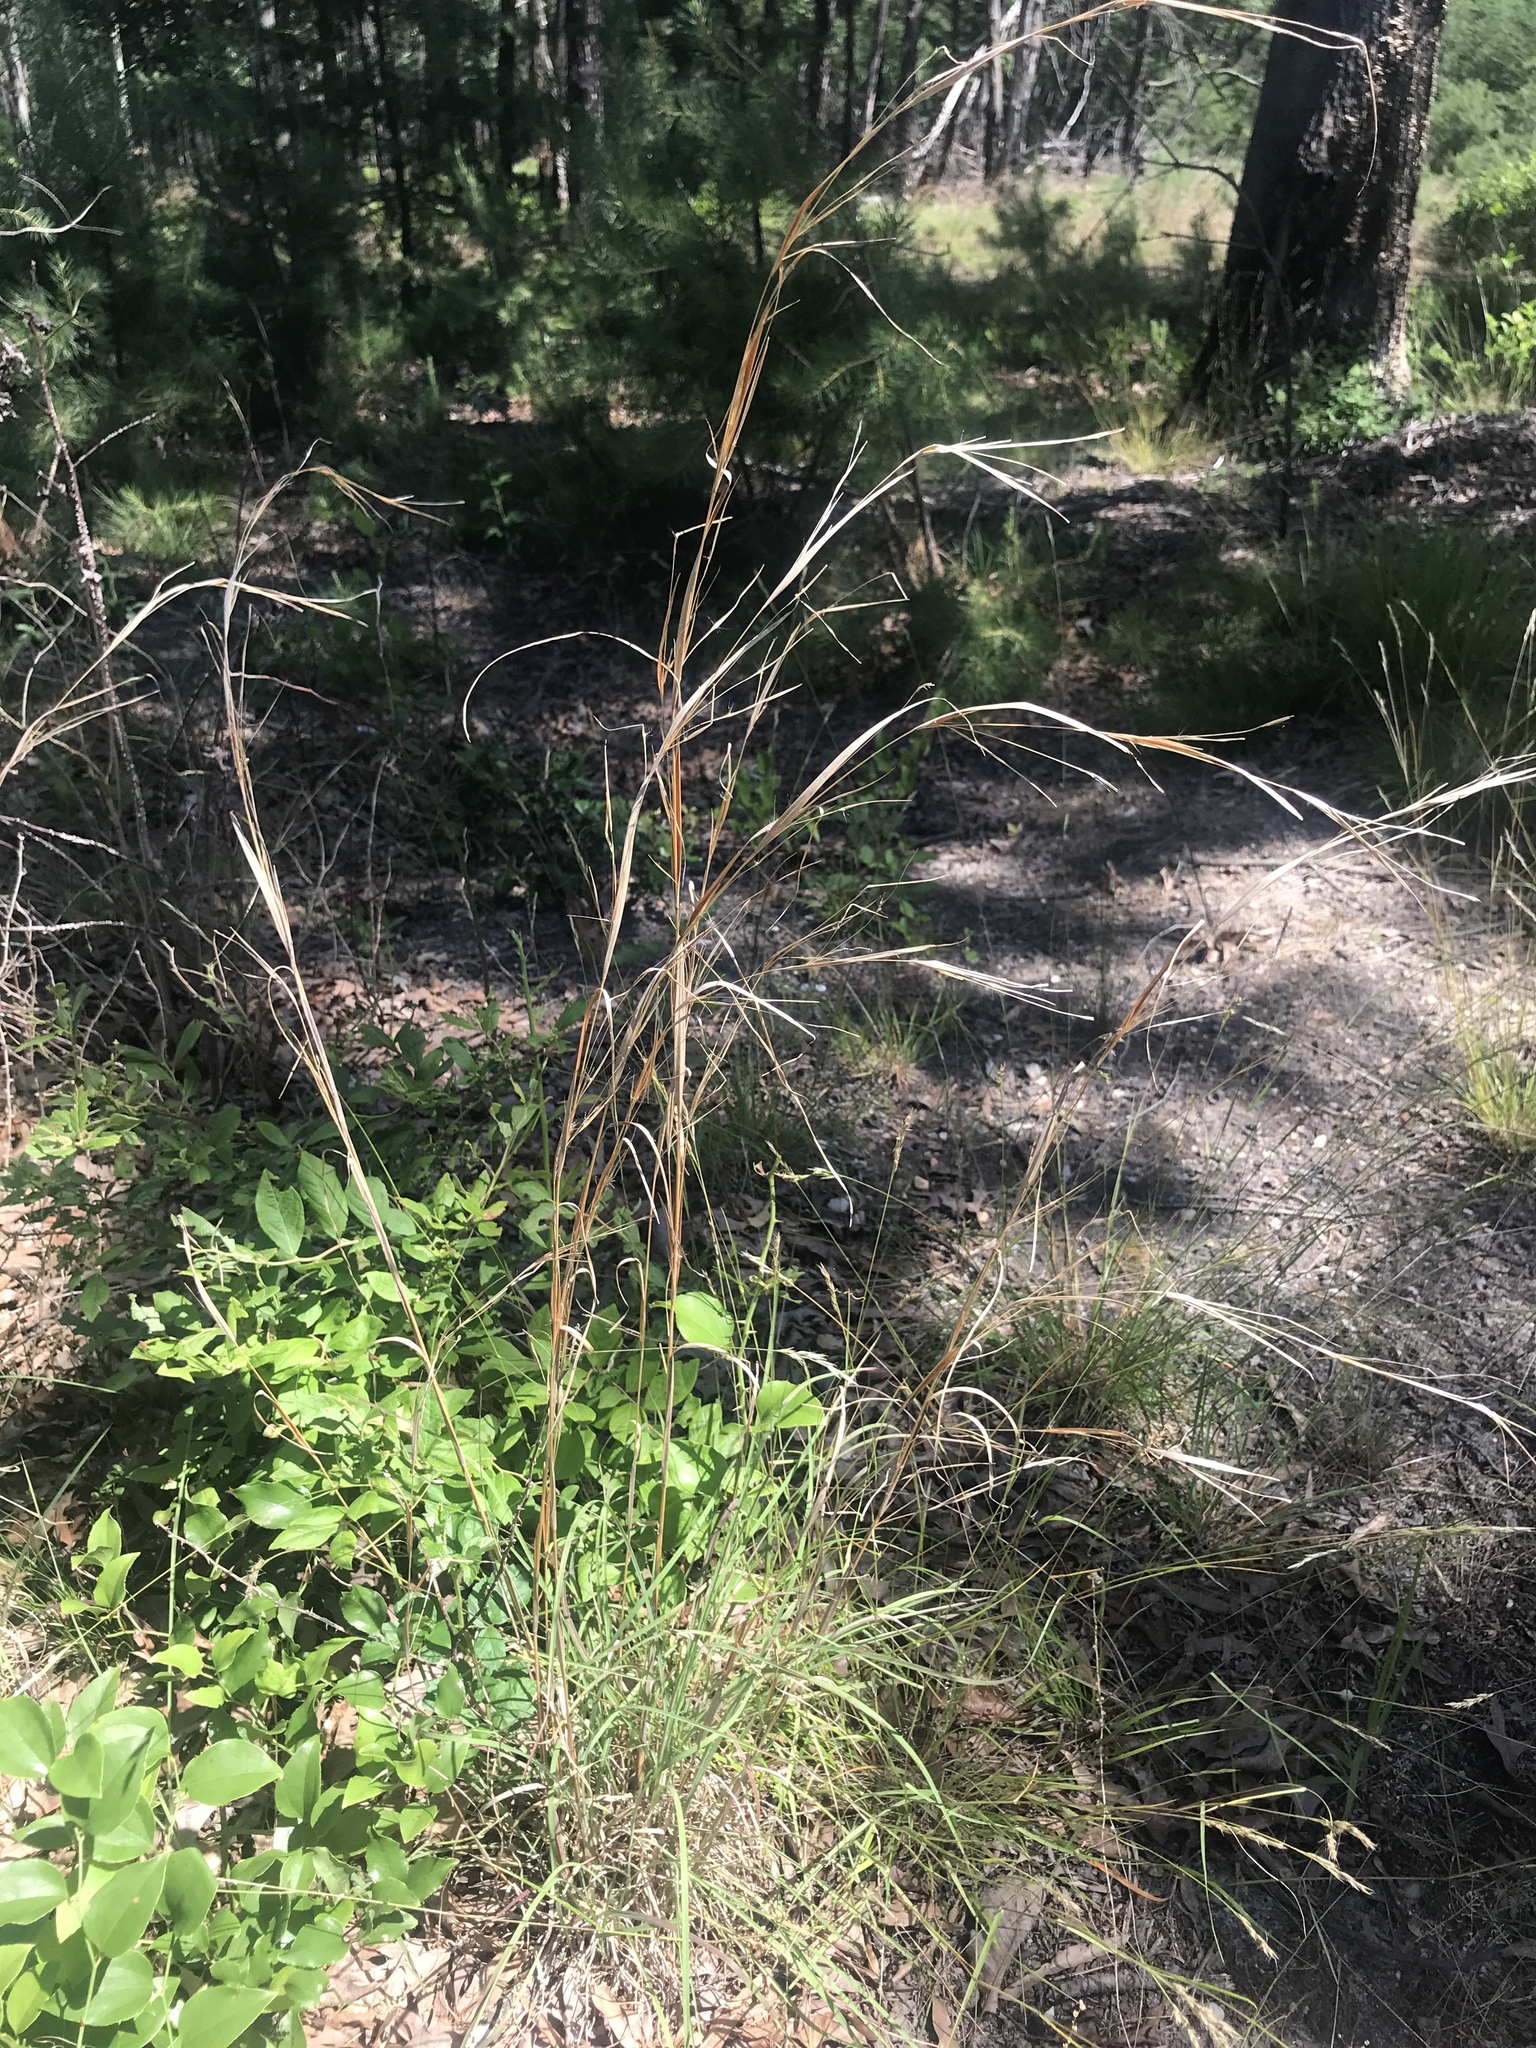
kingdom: Plantae
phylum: Tracheophyta
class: Liliopsida
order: Poales
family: Poaceae
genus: Schizachyrium
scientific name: Schizachyrium scoparium
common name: Little bluestem
